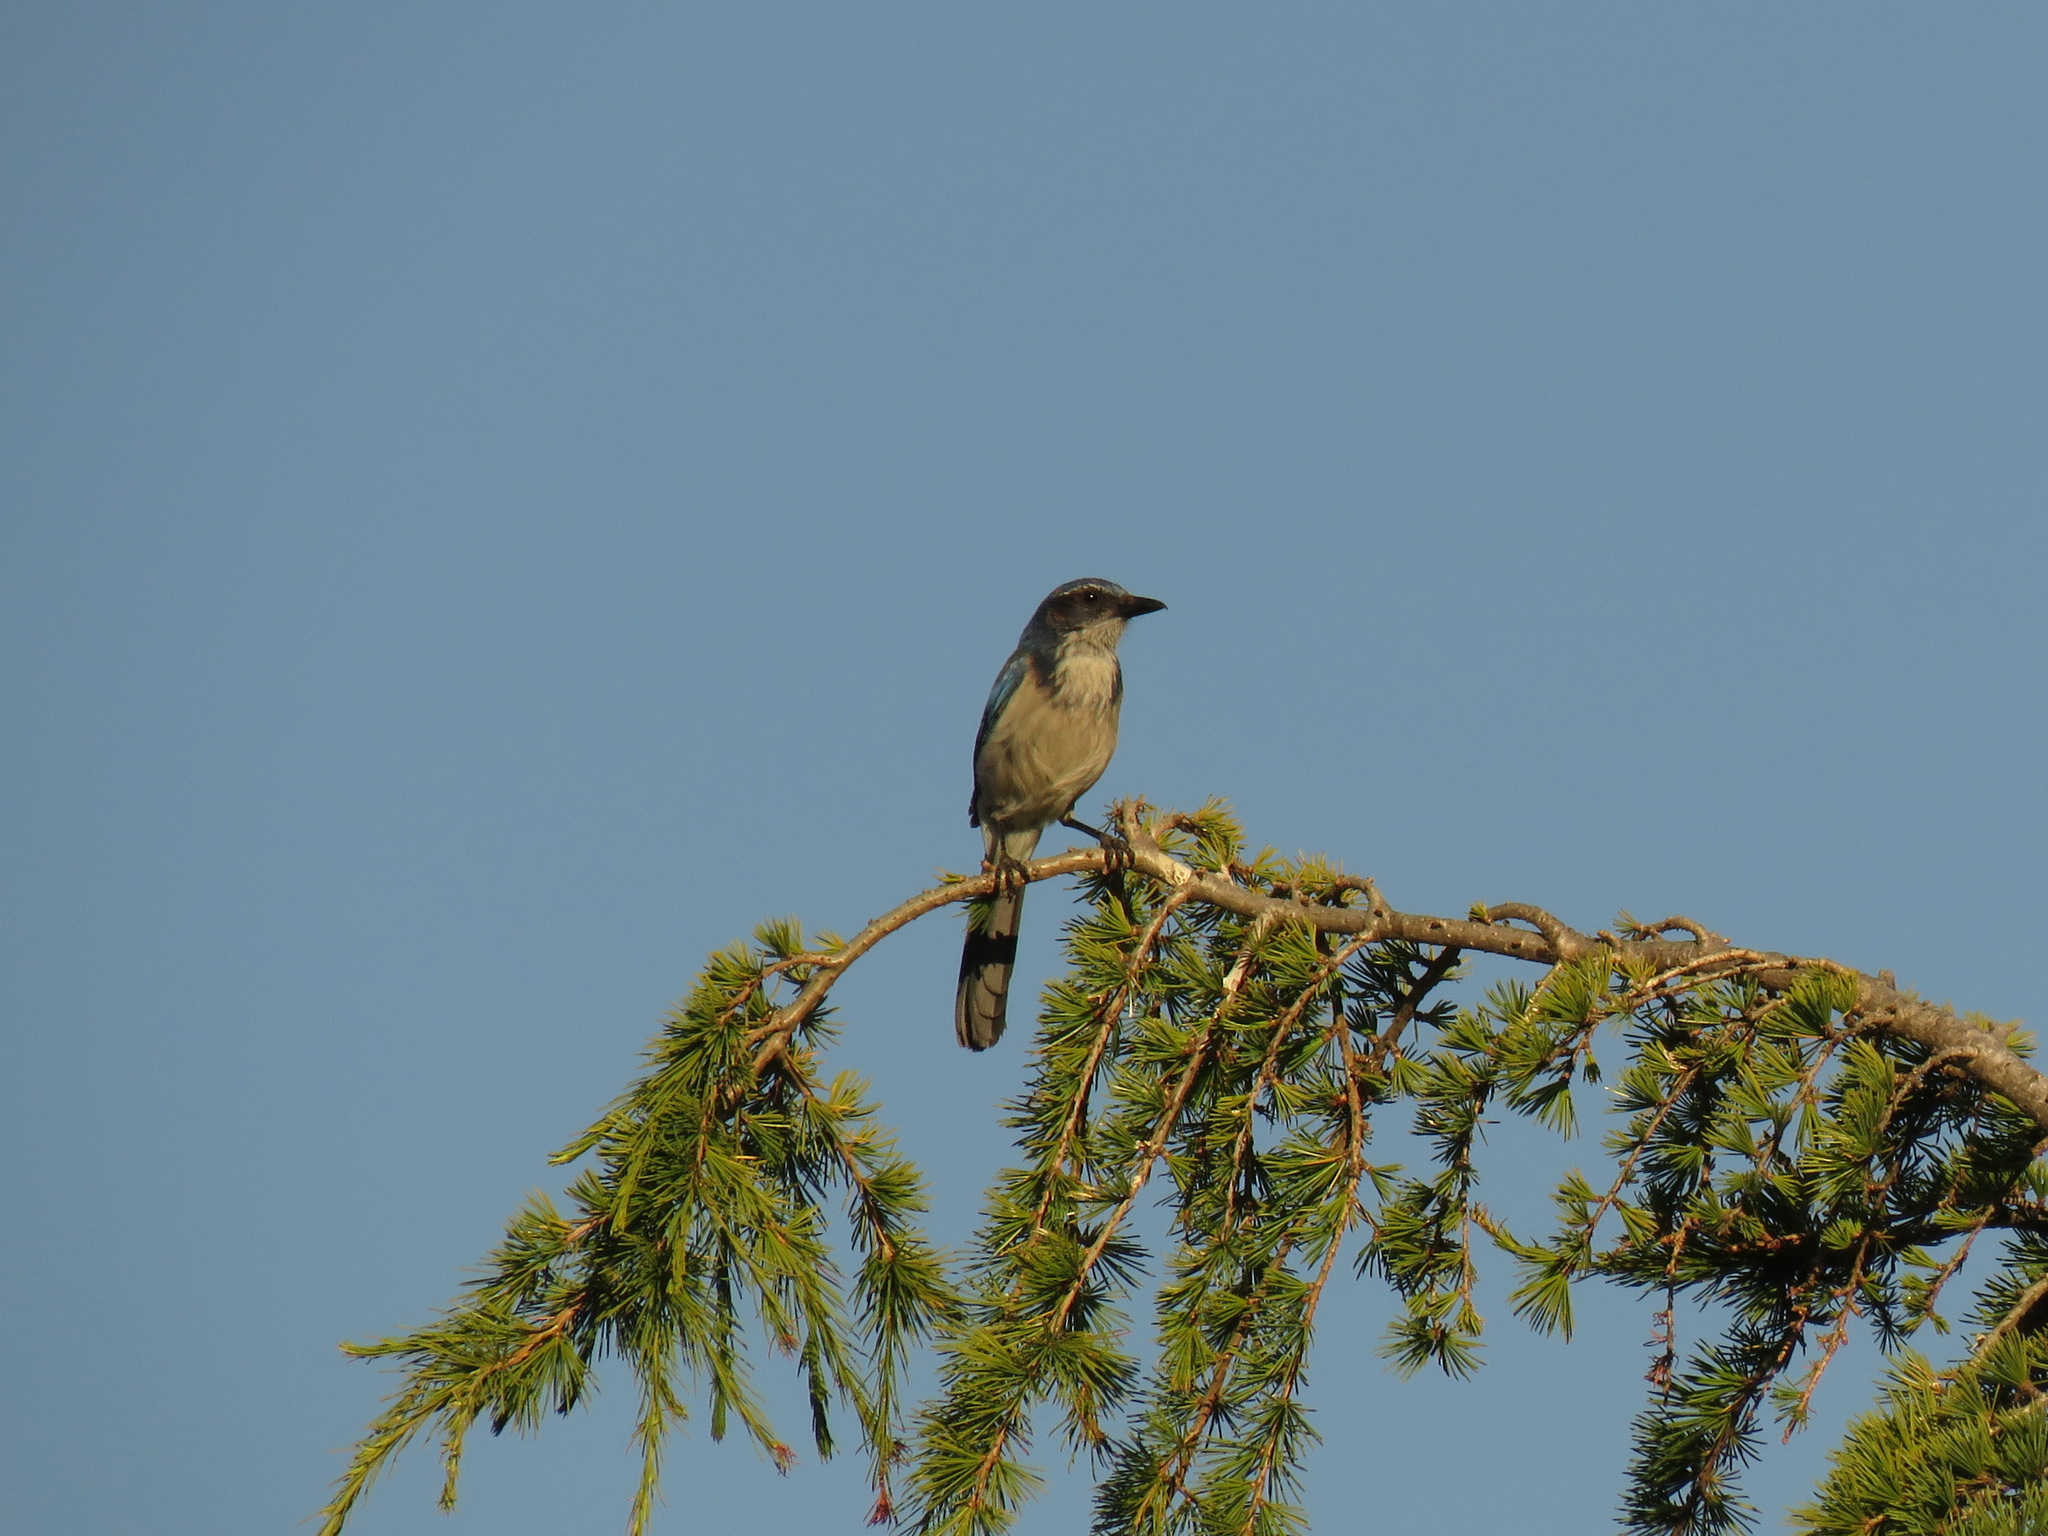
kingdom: Animalia
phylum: Chordata
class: Aves
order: Passeriformes
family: Corvidae
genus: Aphelocoma
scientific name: Aphelocoma californica
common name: California scrub-jay
